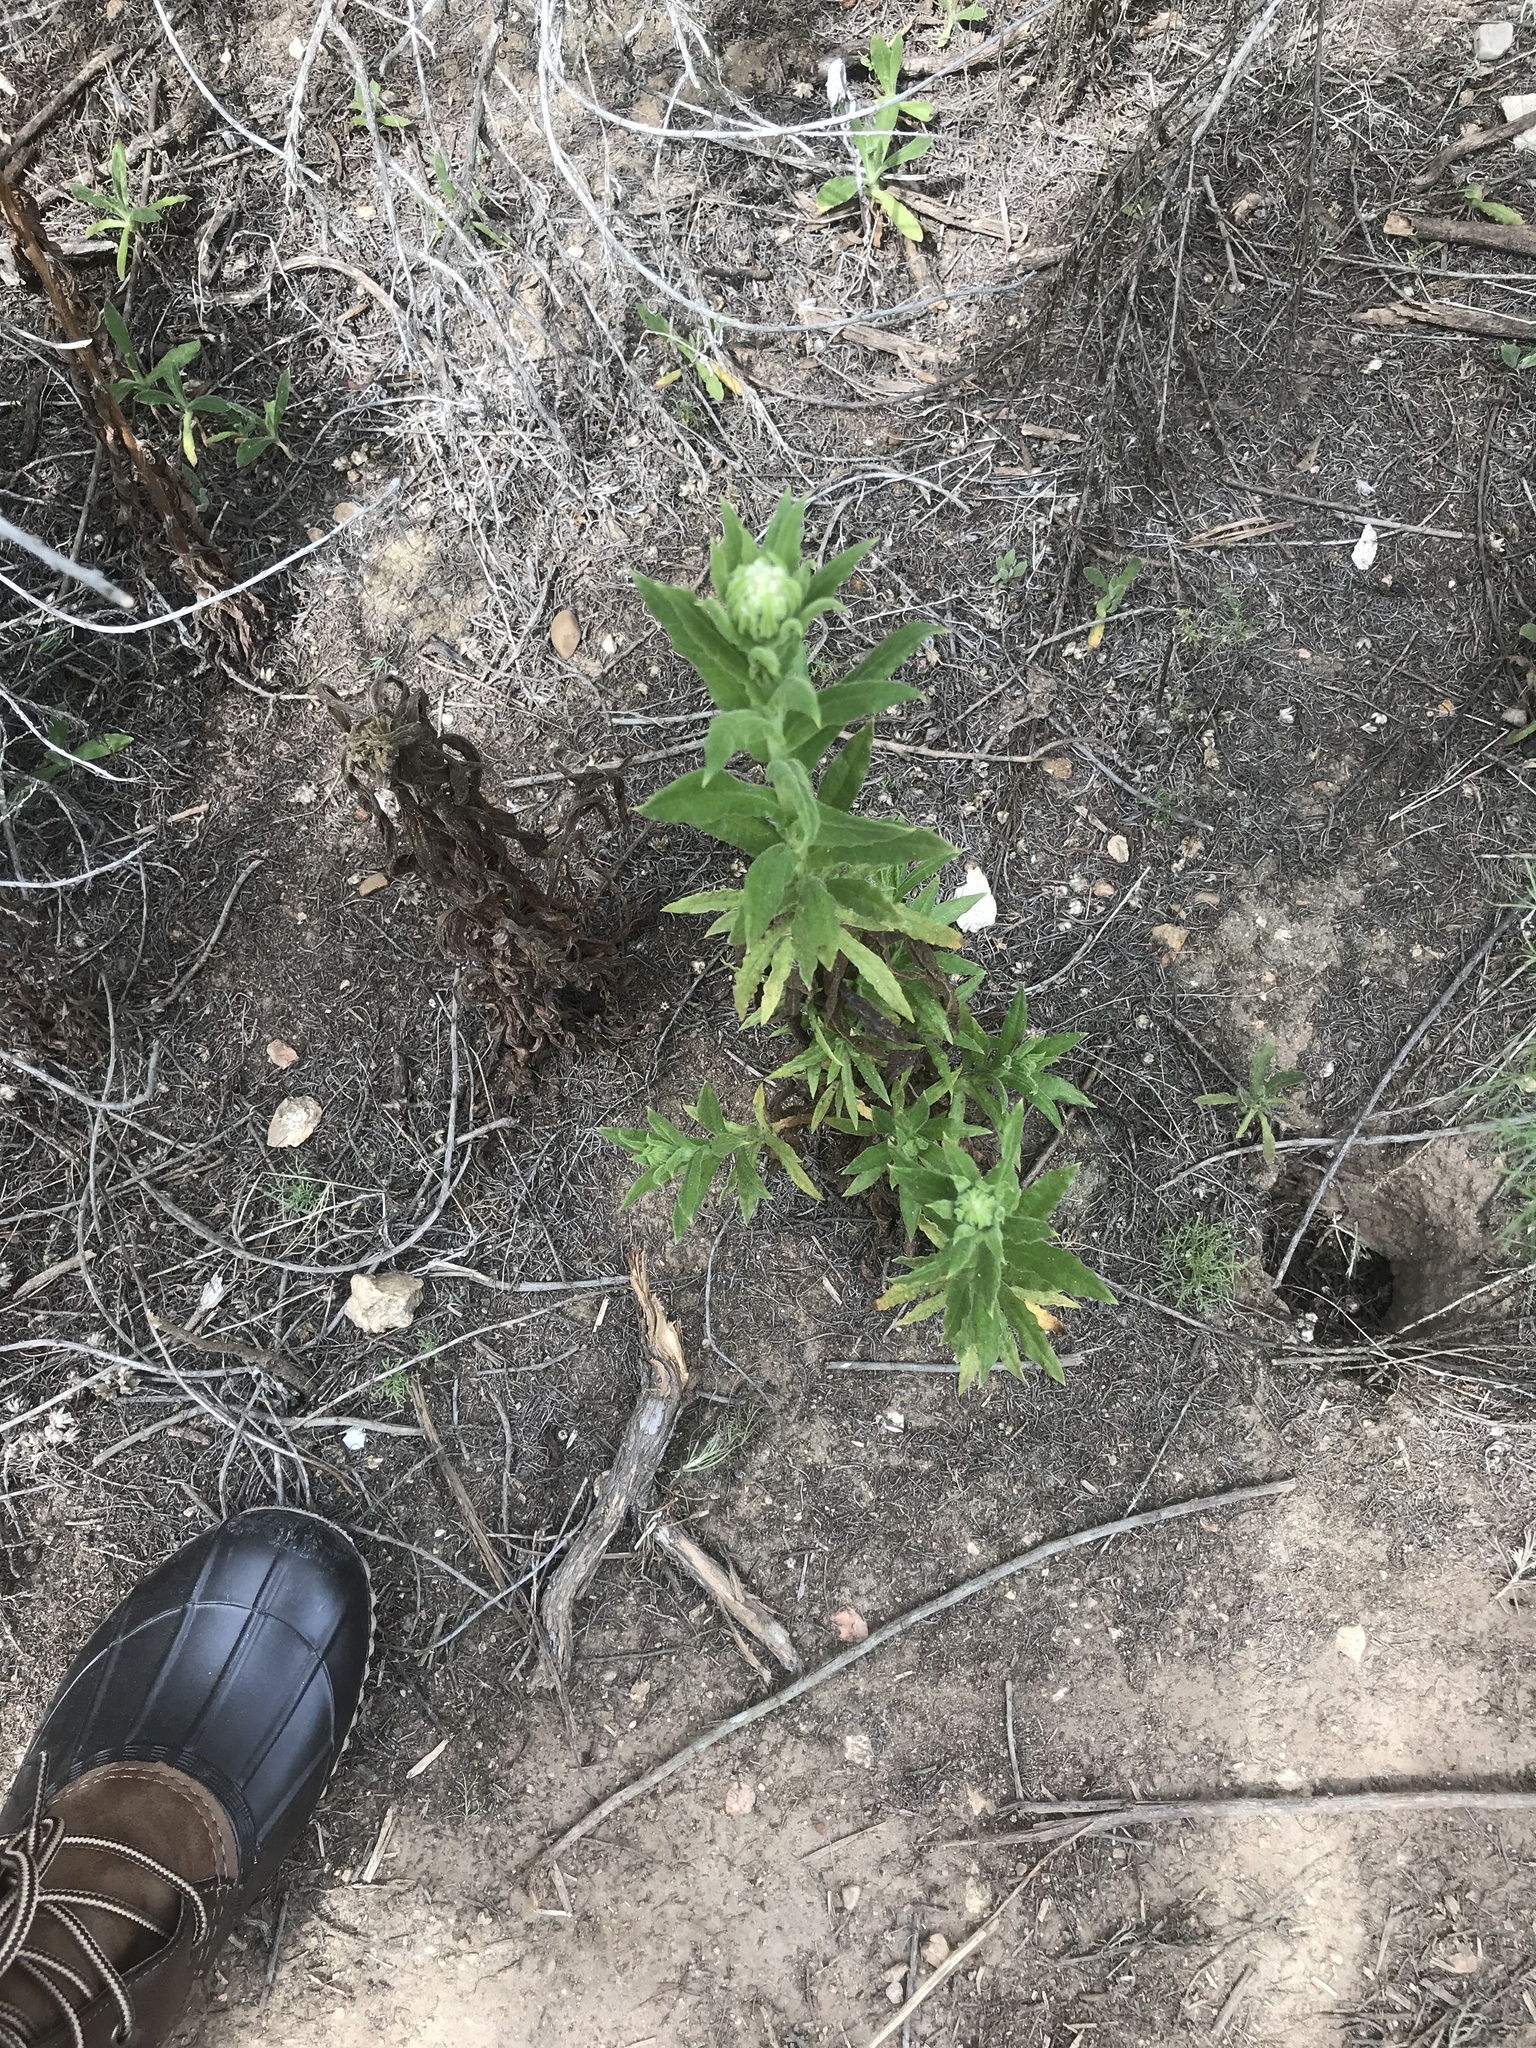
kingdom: Plantae
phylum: Tracheophyta
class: Magnoliopsida
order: Asterales
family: Asteraceae
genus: Pseudognaphalium
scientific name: Pseudognaphalium californicum
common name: California rabbit-tobacco
